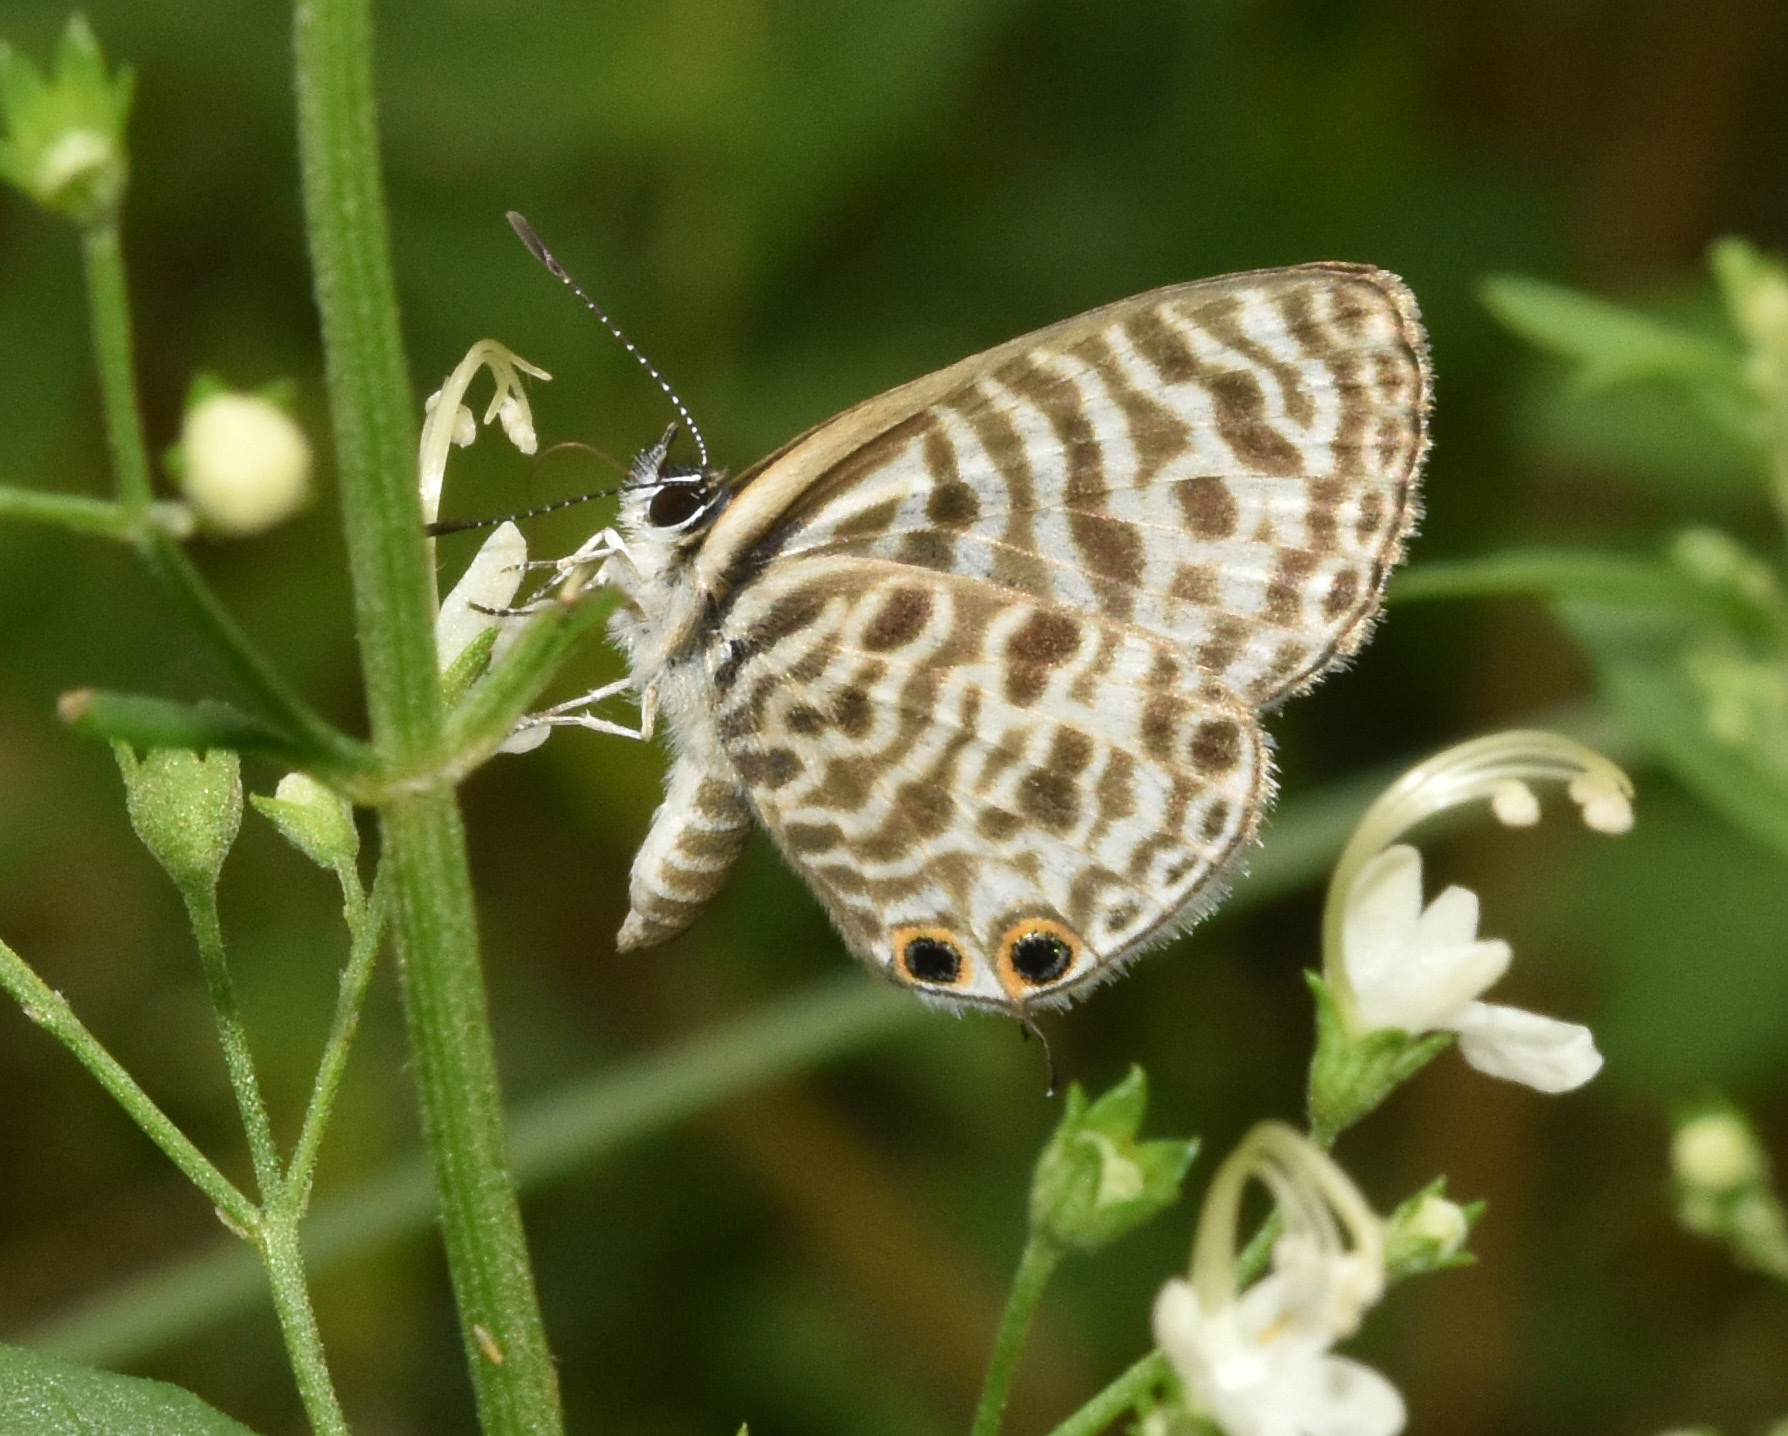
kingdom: Animalia
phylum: Arthropoda
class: Insecta
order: Lepidoptera
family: Lycaenidae
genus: Leptotes
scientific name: Leptotes
